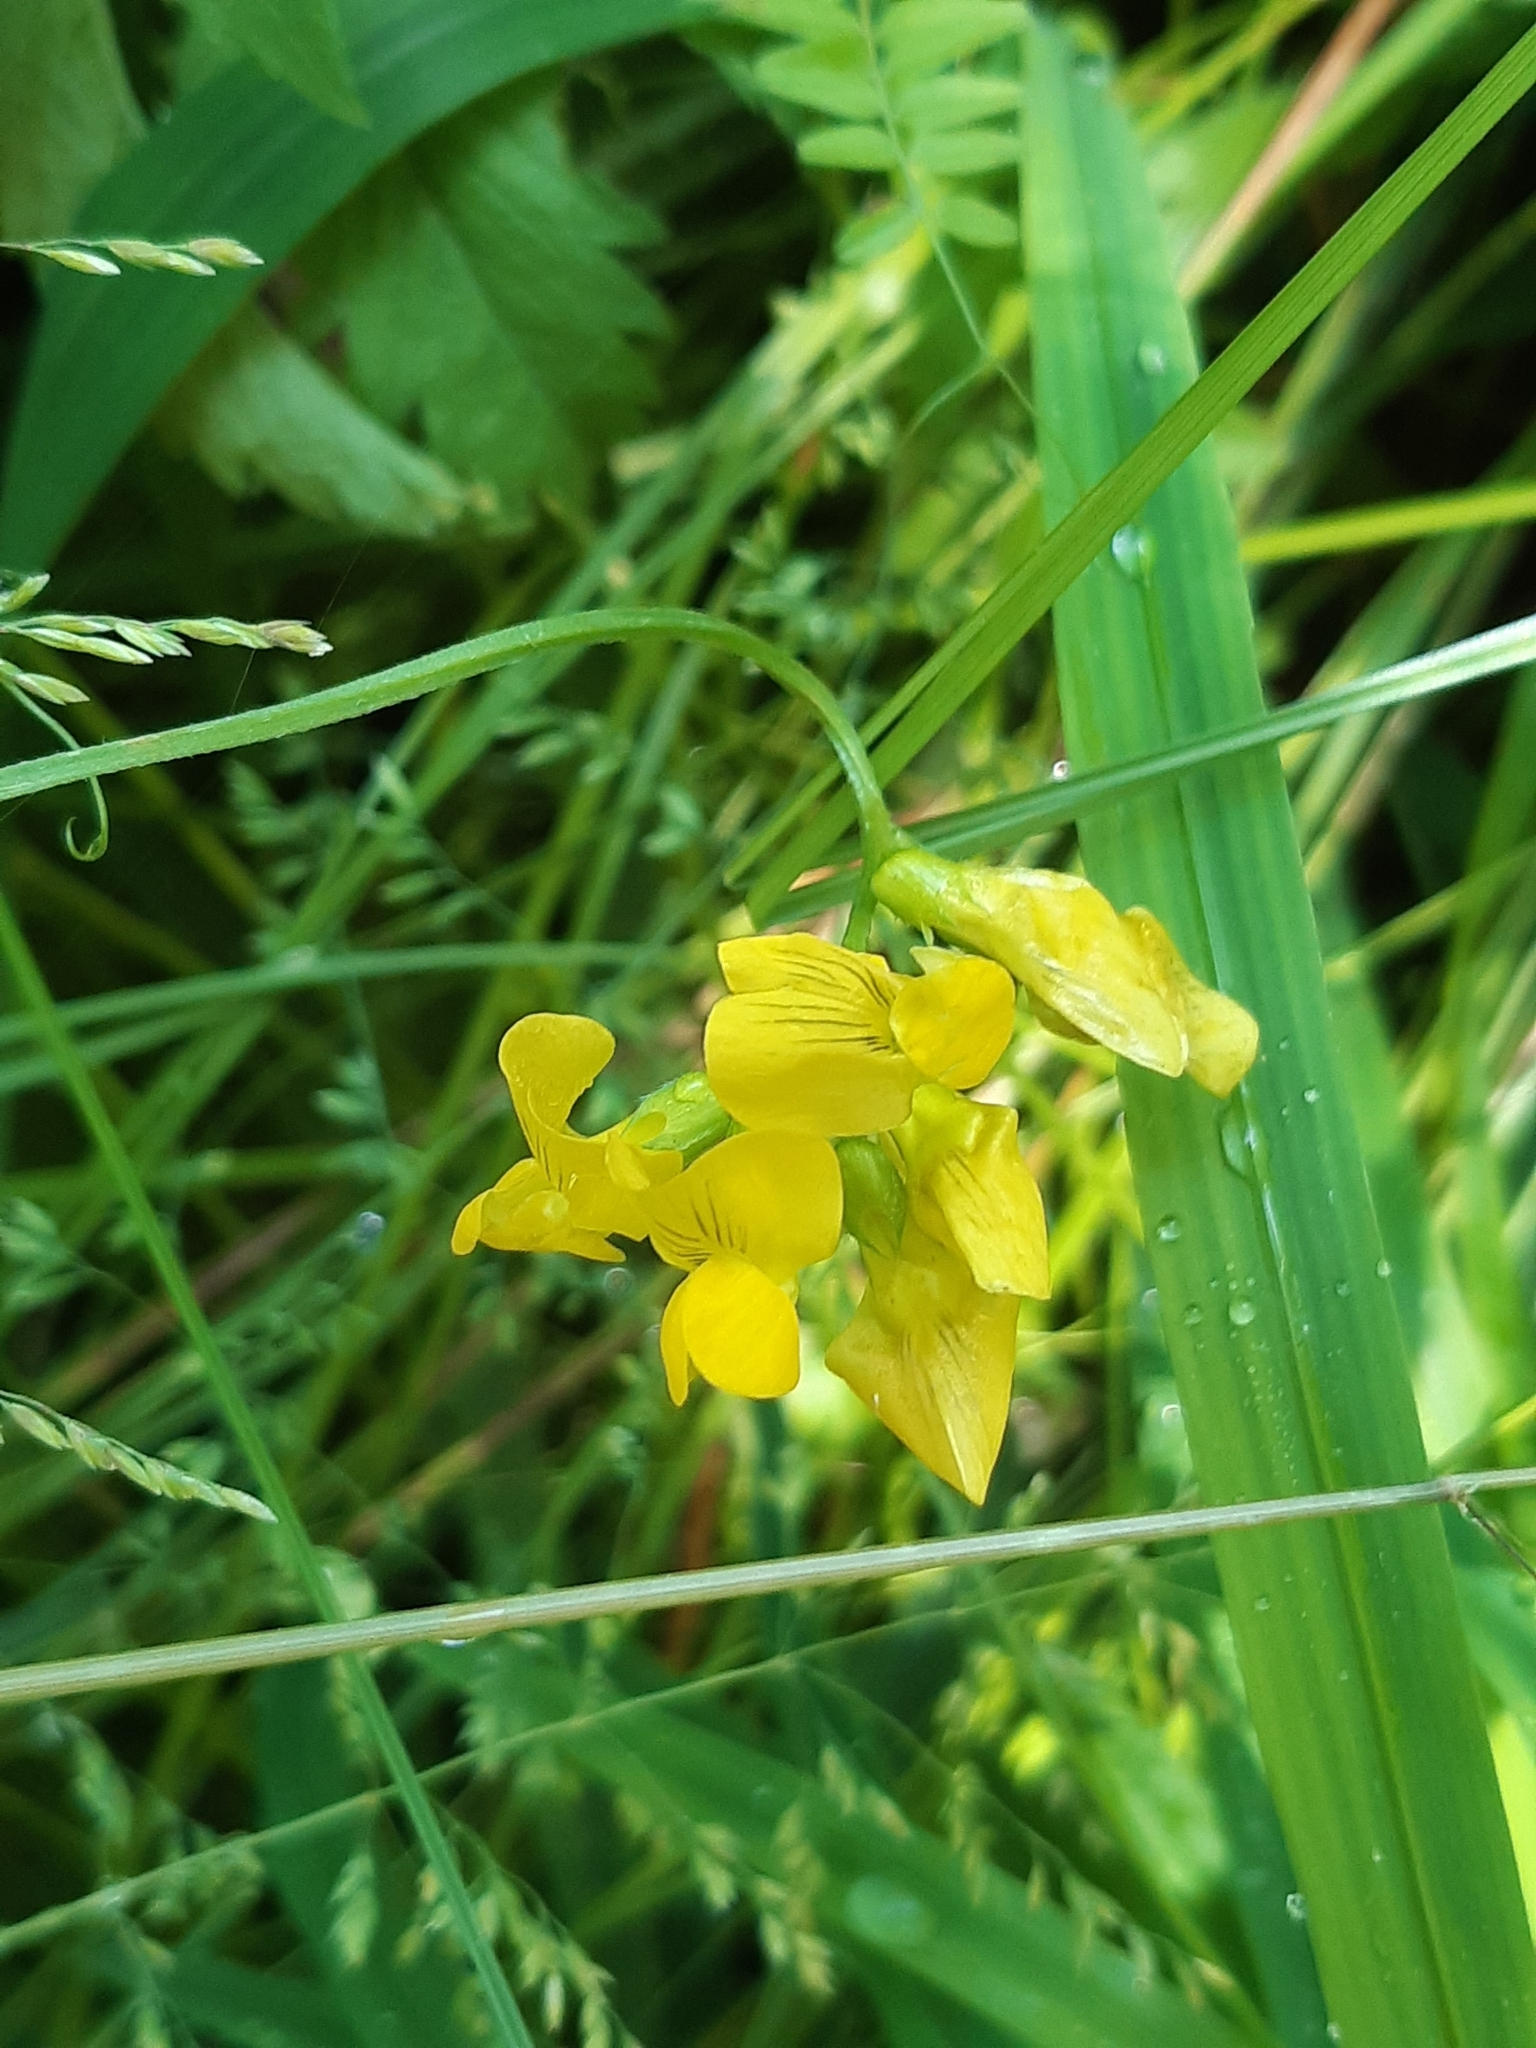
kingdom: Plantae
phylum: Tracheophyta
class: Magnoliopsida
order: Fabales
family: Fabaceae
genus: Lathyrus
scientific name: Lathyrus pratensis
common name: Meadow vetchling
